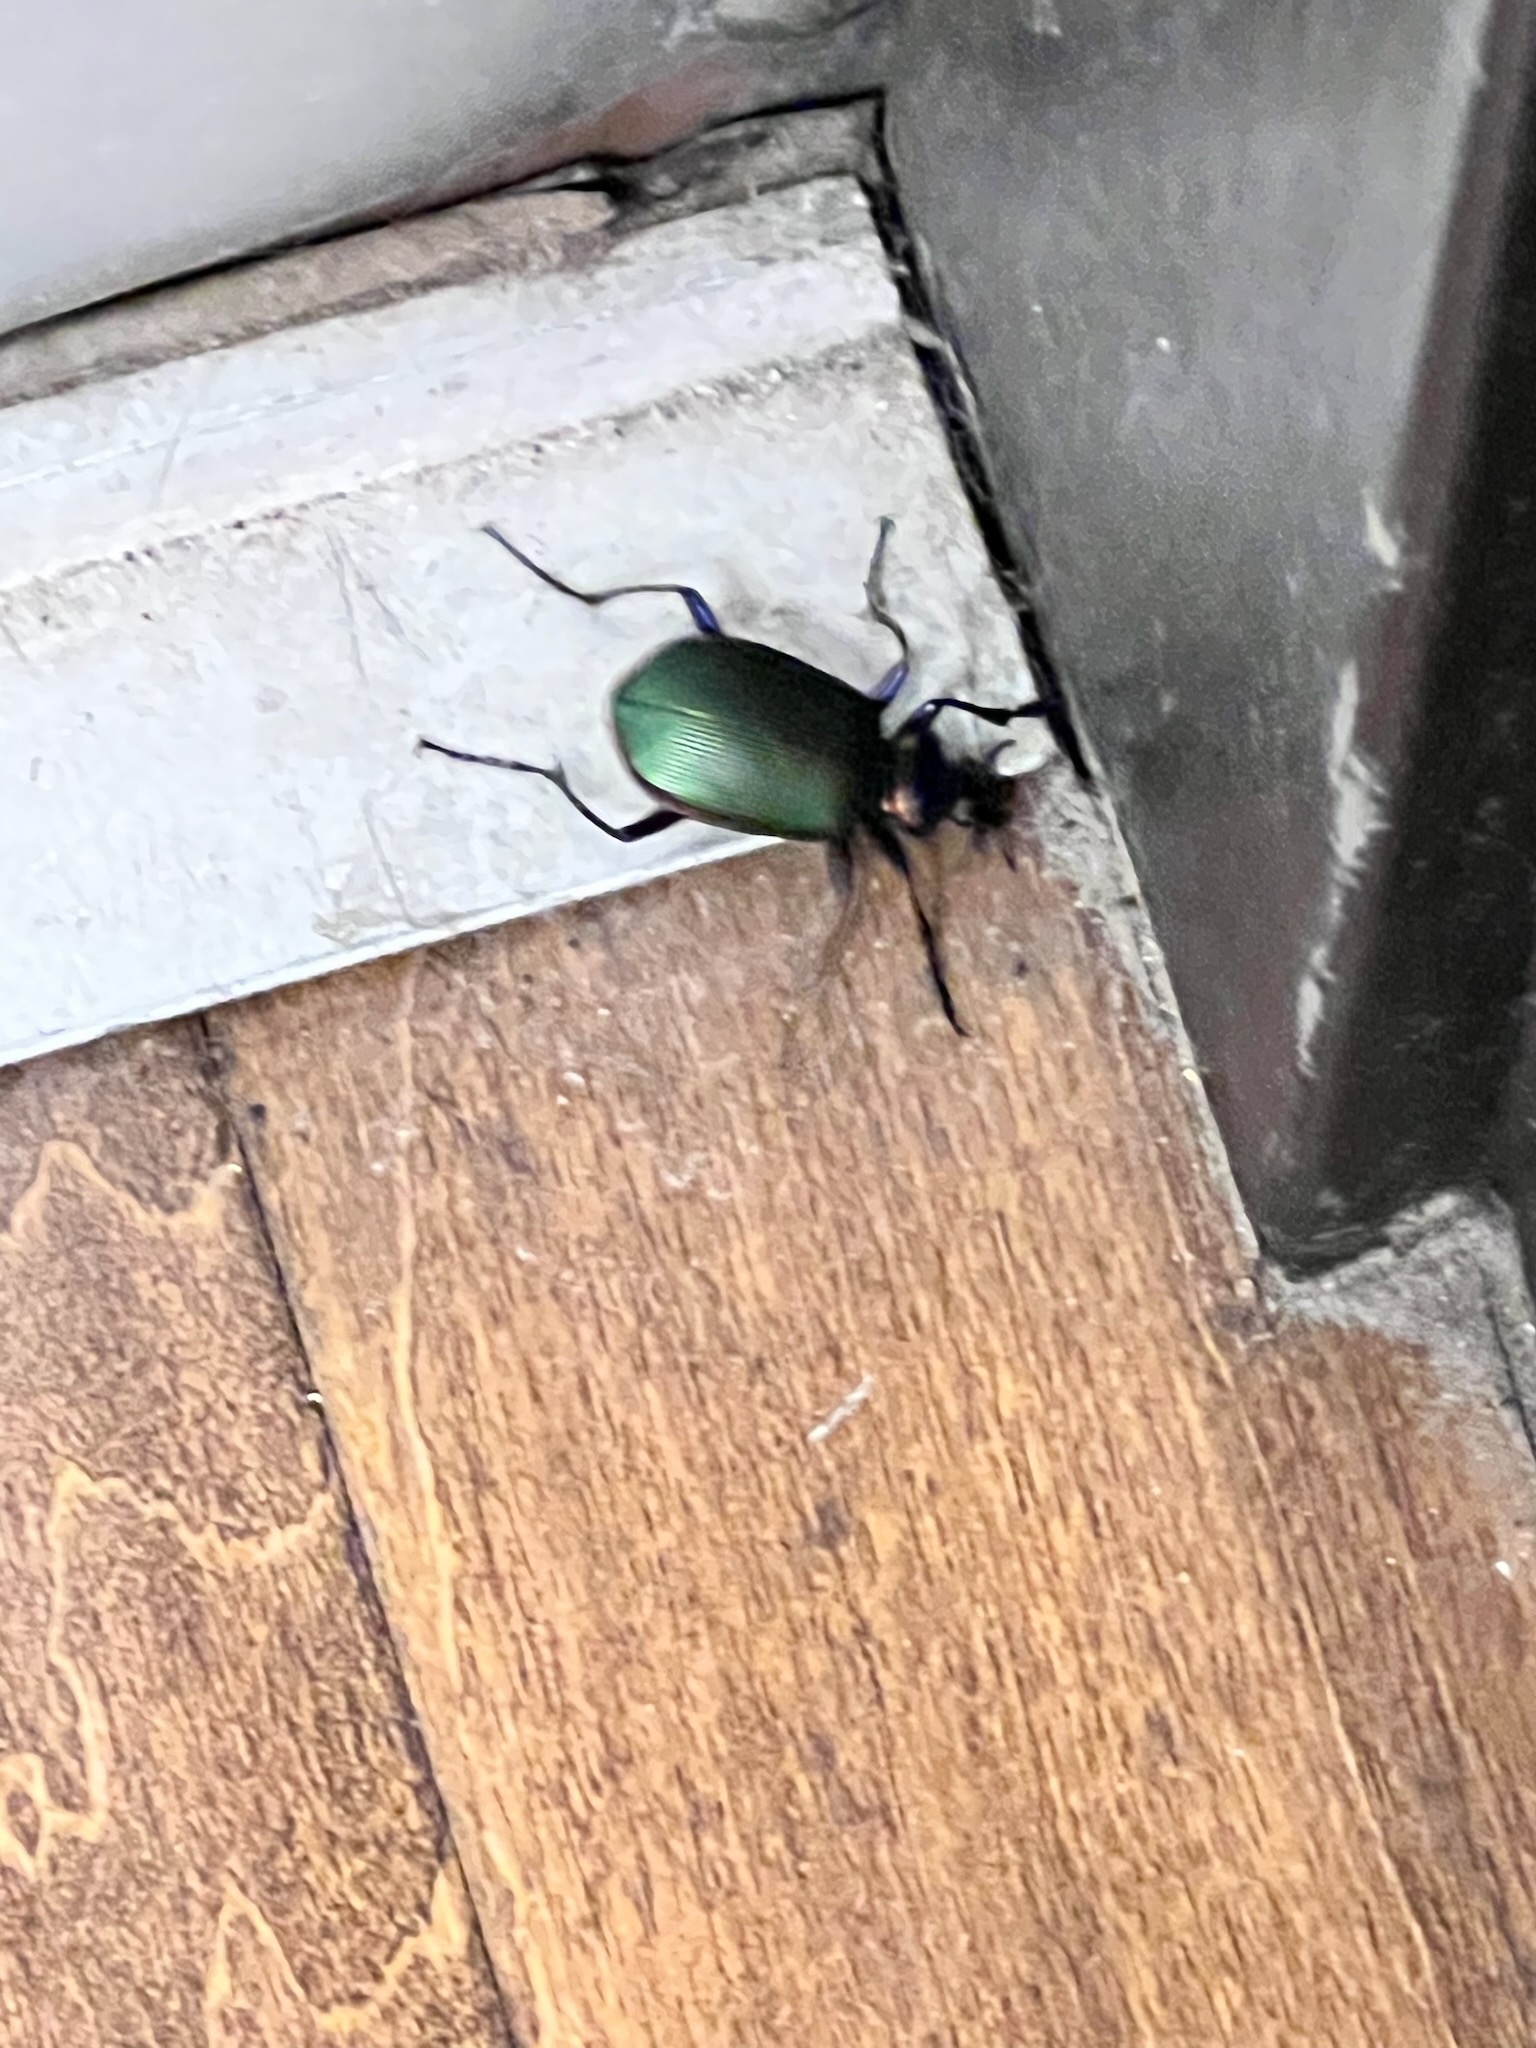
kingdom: Animalia
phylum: Arthropoda
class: Insecta
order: Coleoptera
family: Carabidae
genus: Calosoma
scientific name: Calosoma scrutator
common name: Fiery searcher beetle
